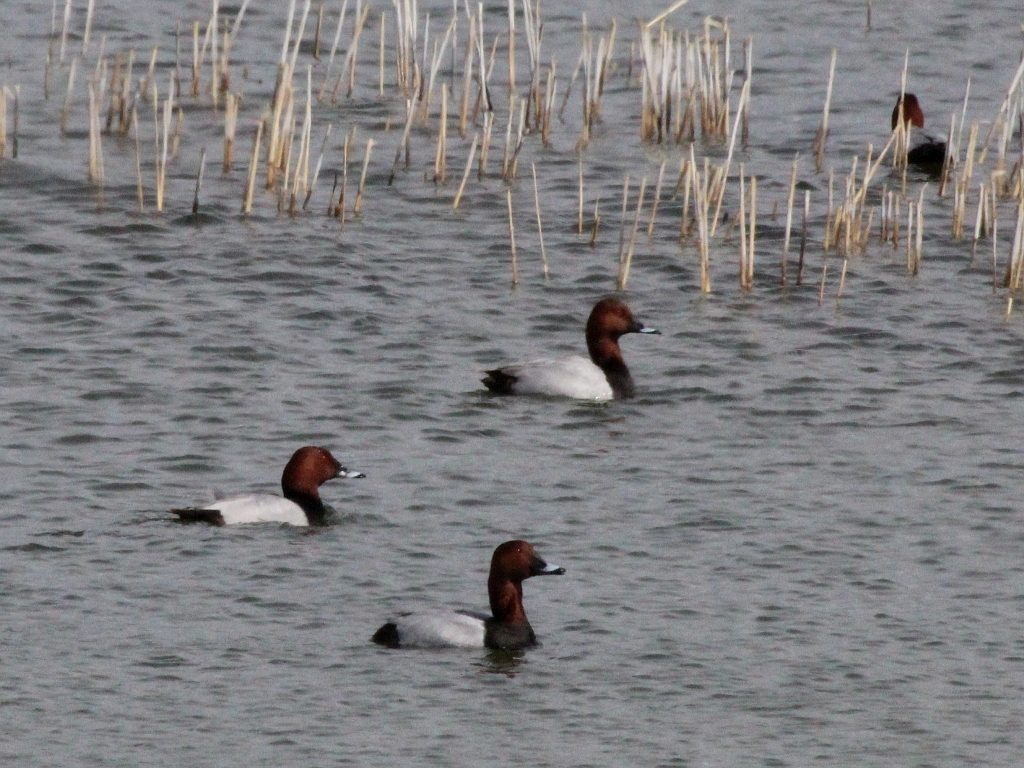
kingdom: Animalia
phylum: Chordata
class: Aves
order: Anseriformes
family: Anatidae
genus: Aythya
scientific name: Aythya ferina
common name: Common pochard
